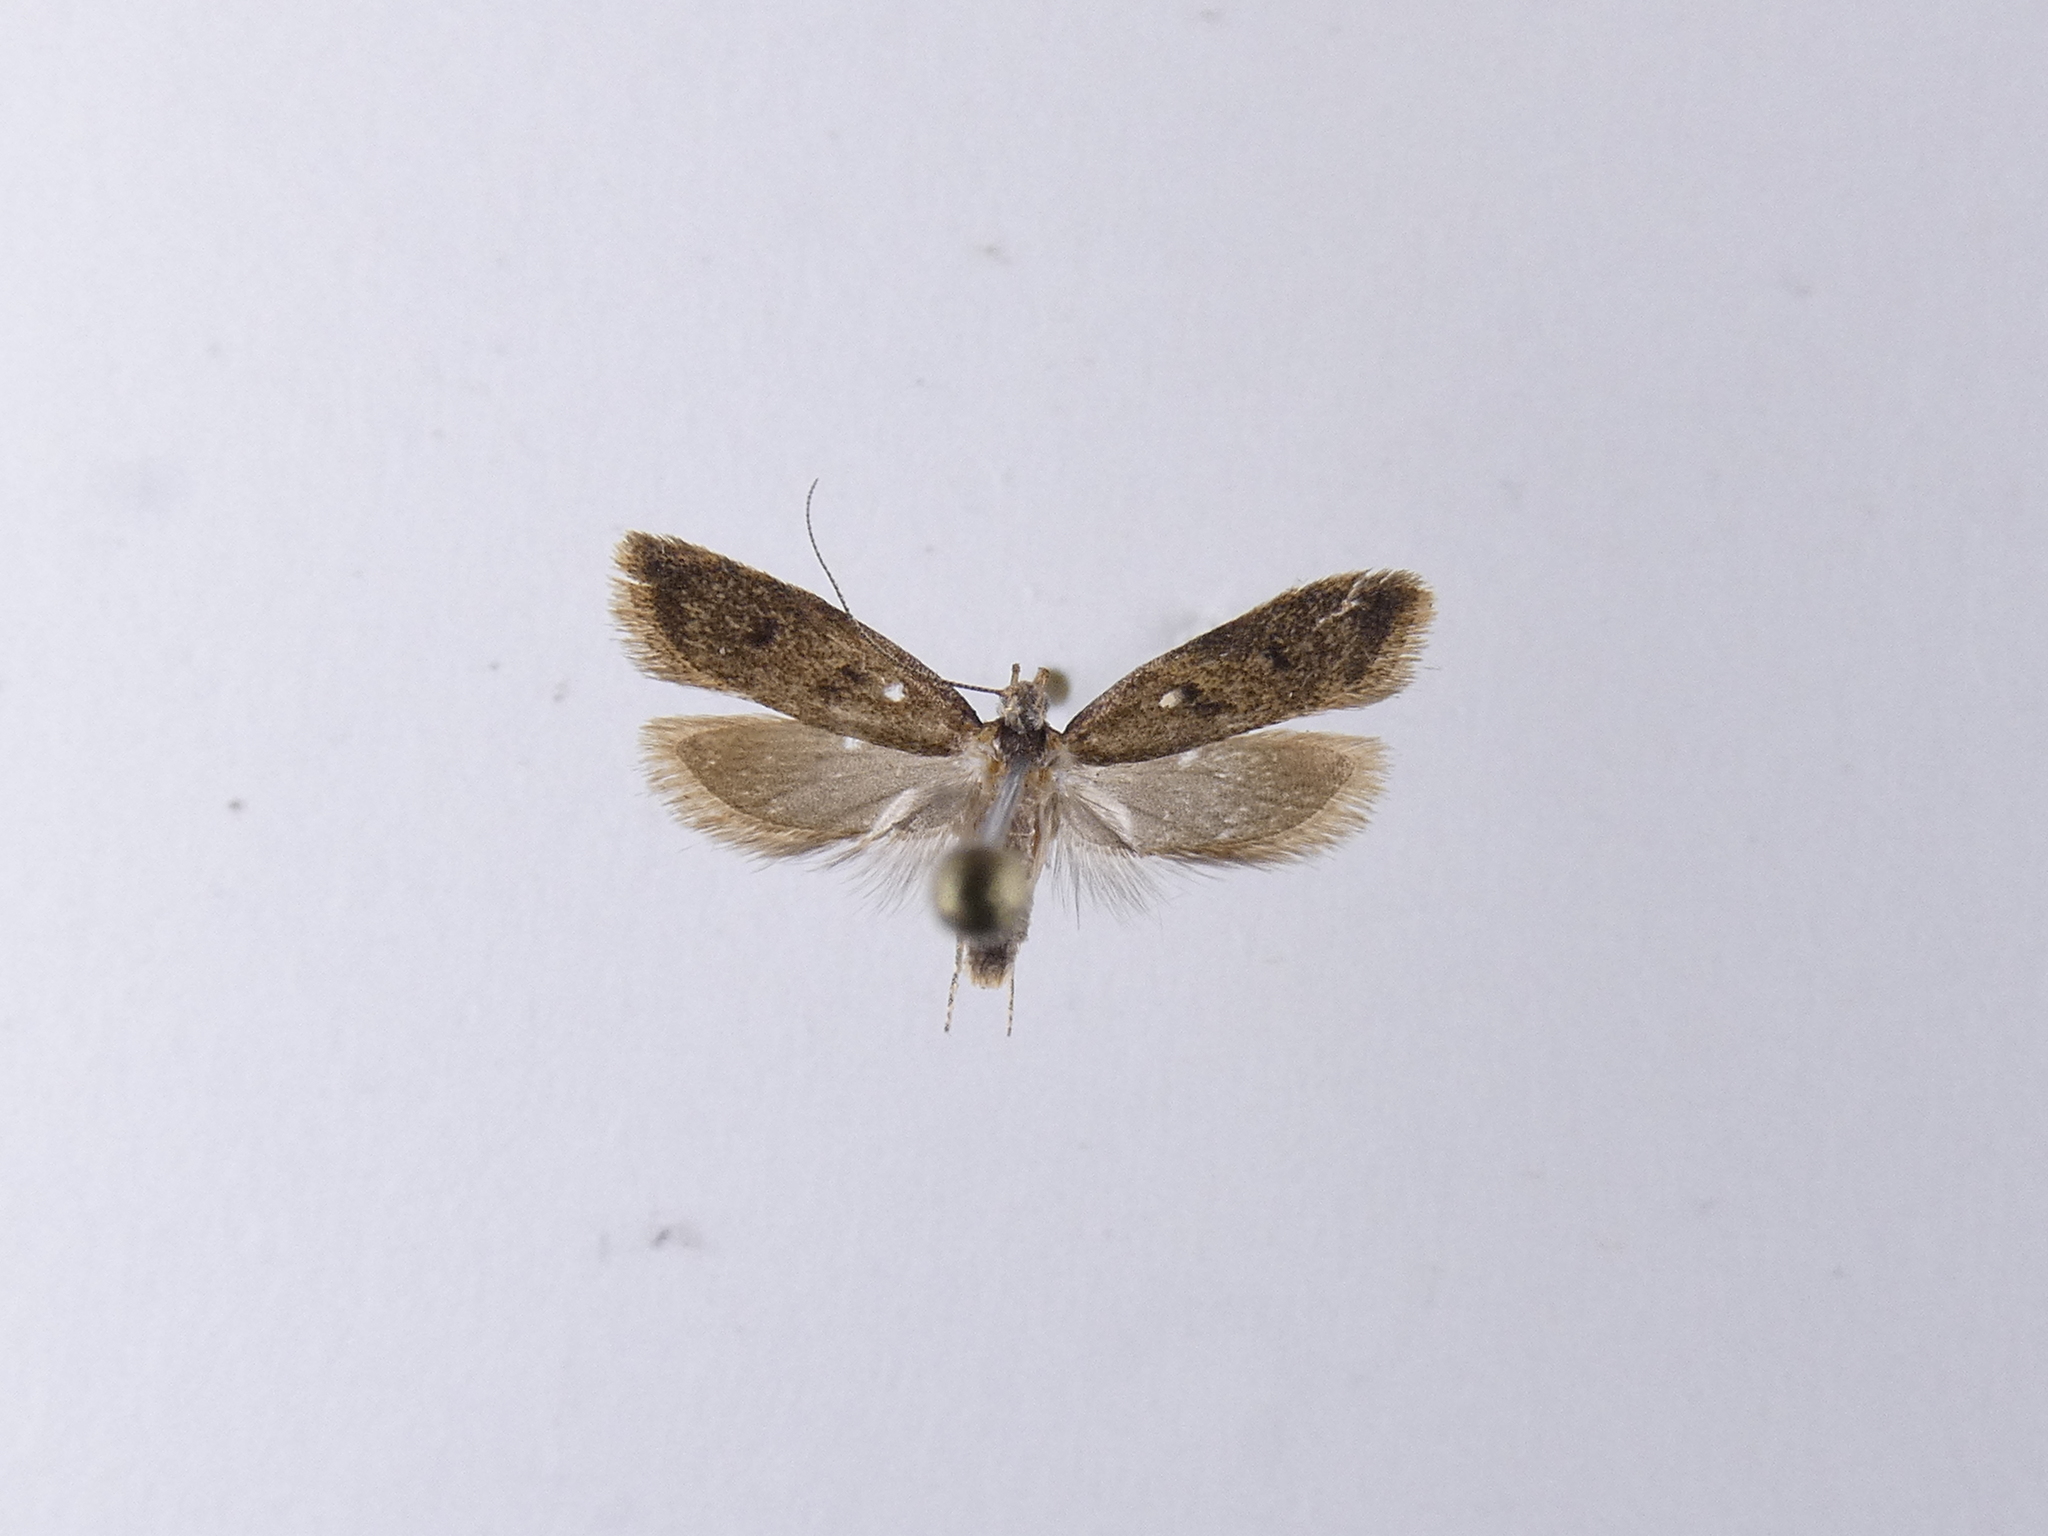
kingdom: Animalia
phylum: Arthropoda
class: Insecta
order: Lepidoptera
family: Oecophoridae
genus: Gymnobathra
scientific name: Gymnobathra tholodella
